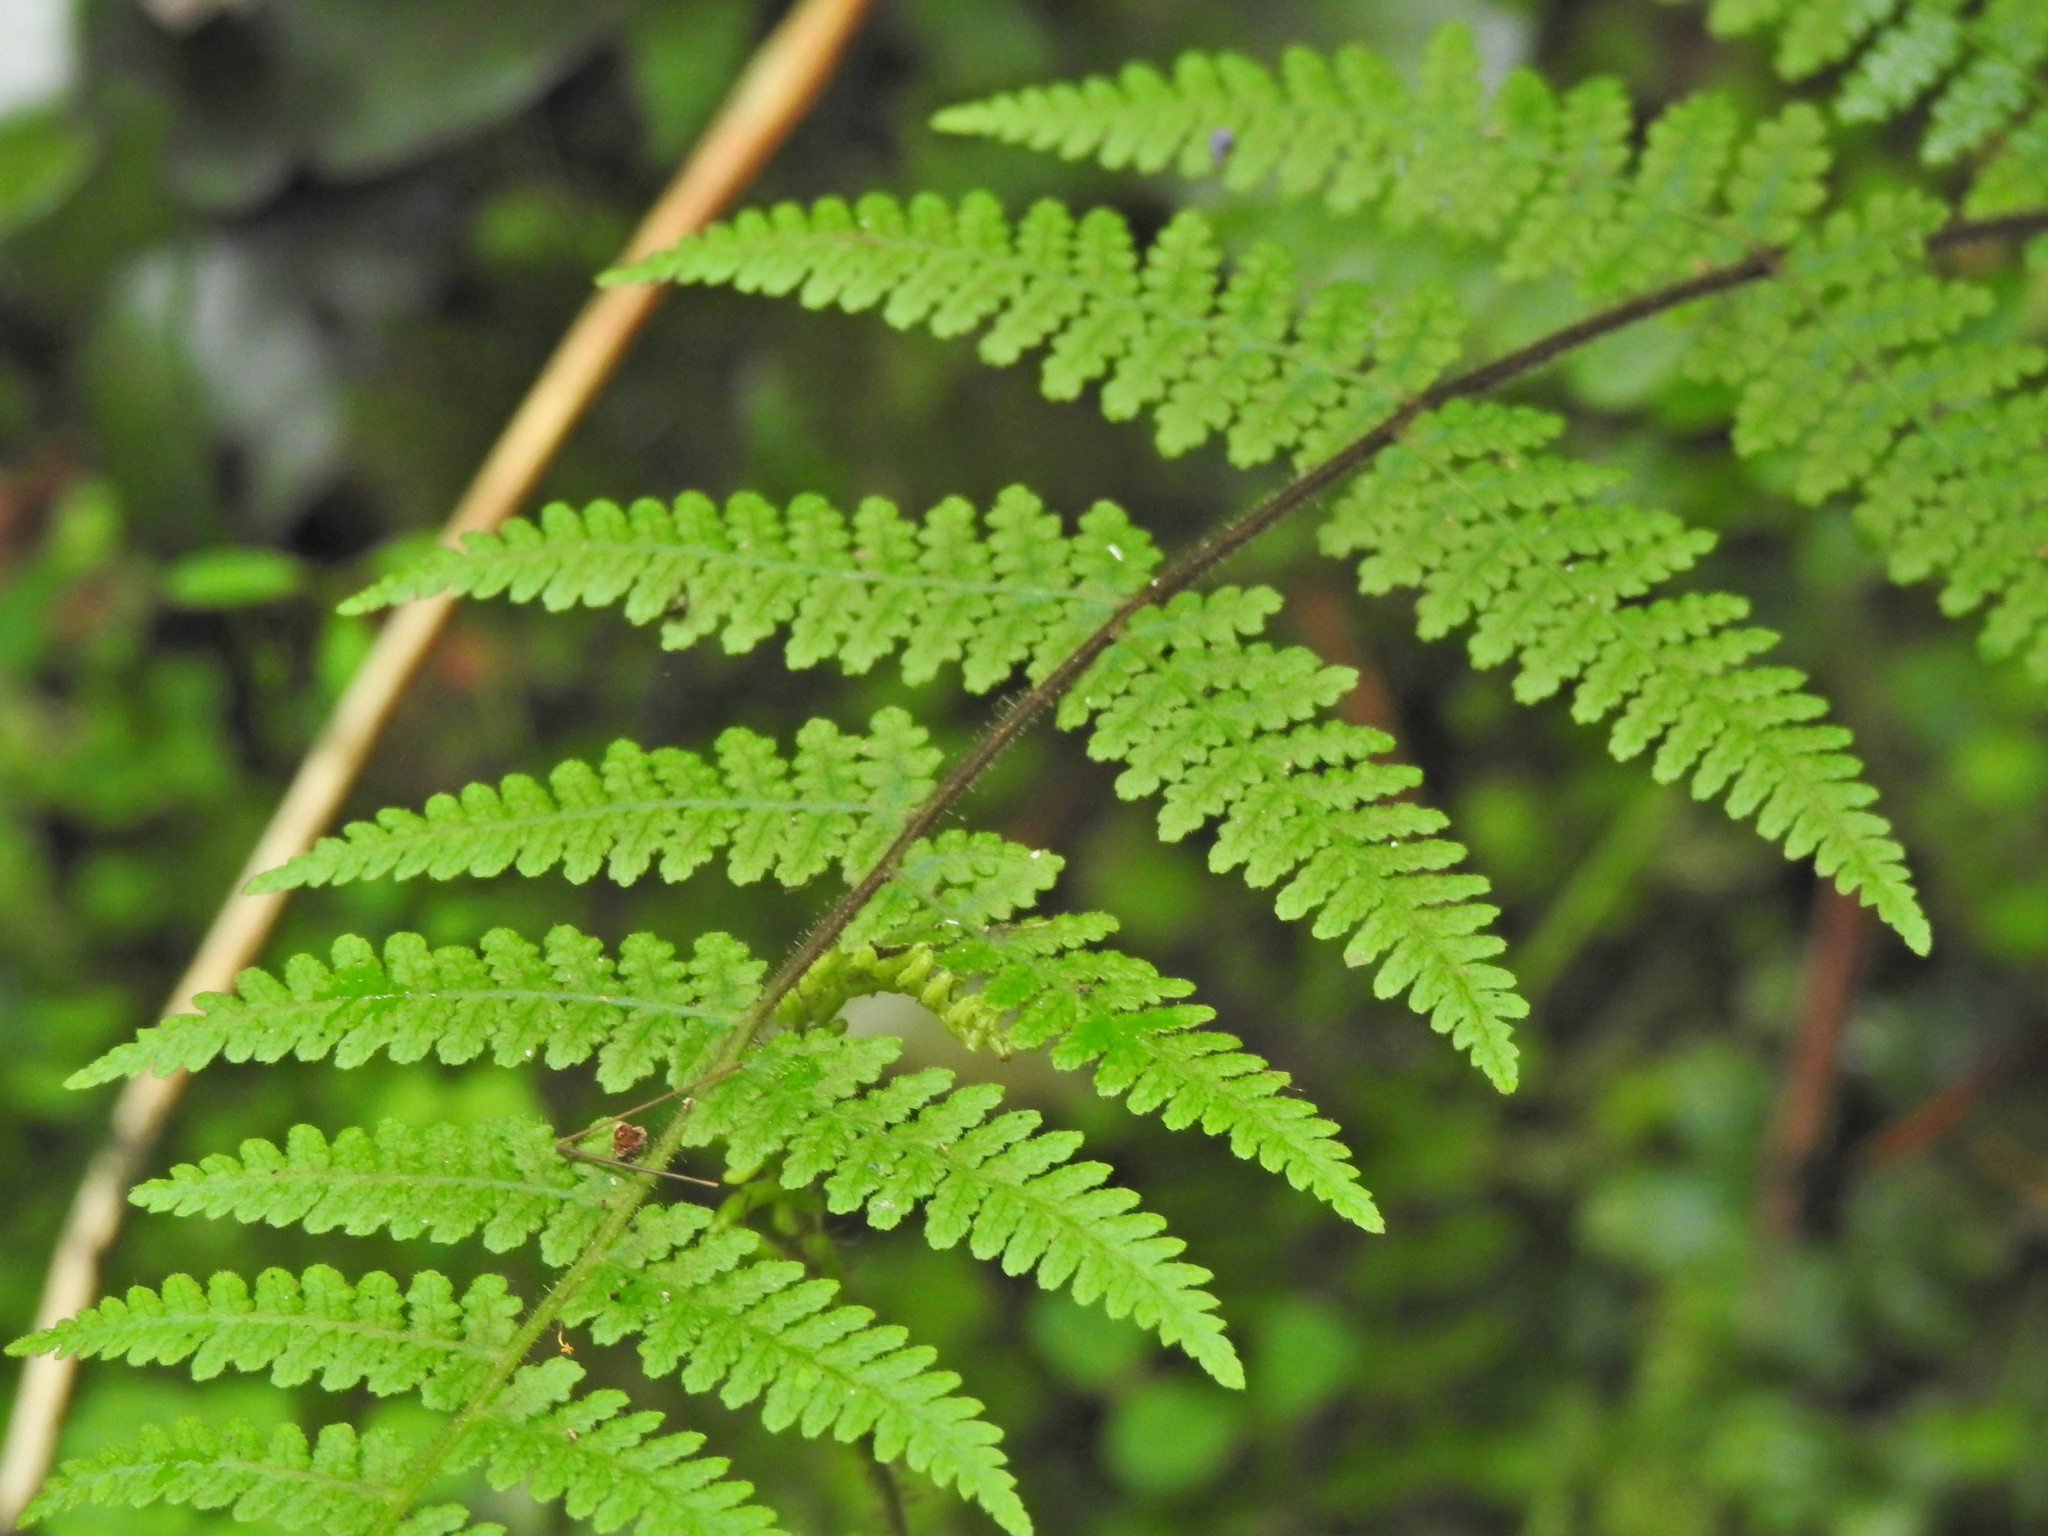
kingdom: Plantae
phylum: Tracheophyta
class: Polypodiopsida
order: Polypodiales
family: Dennstaedtiaceae
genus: Hypolepis
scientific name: Hypolepis rugosula
